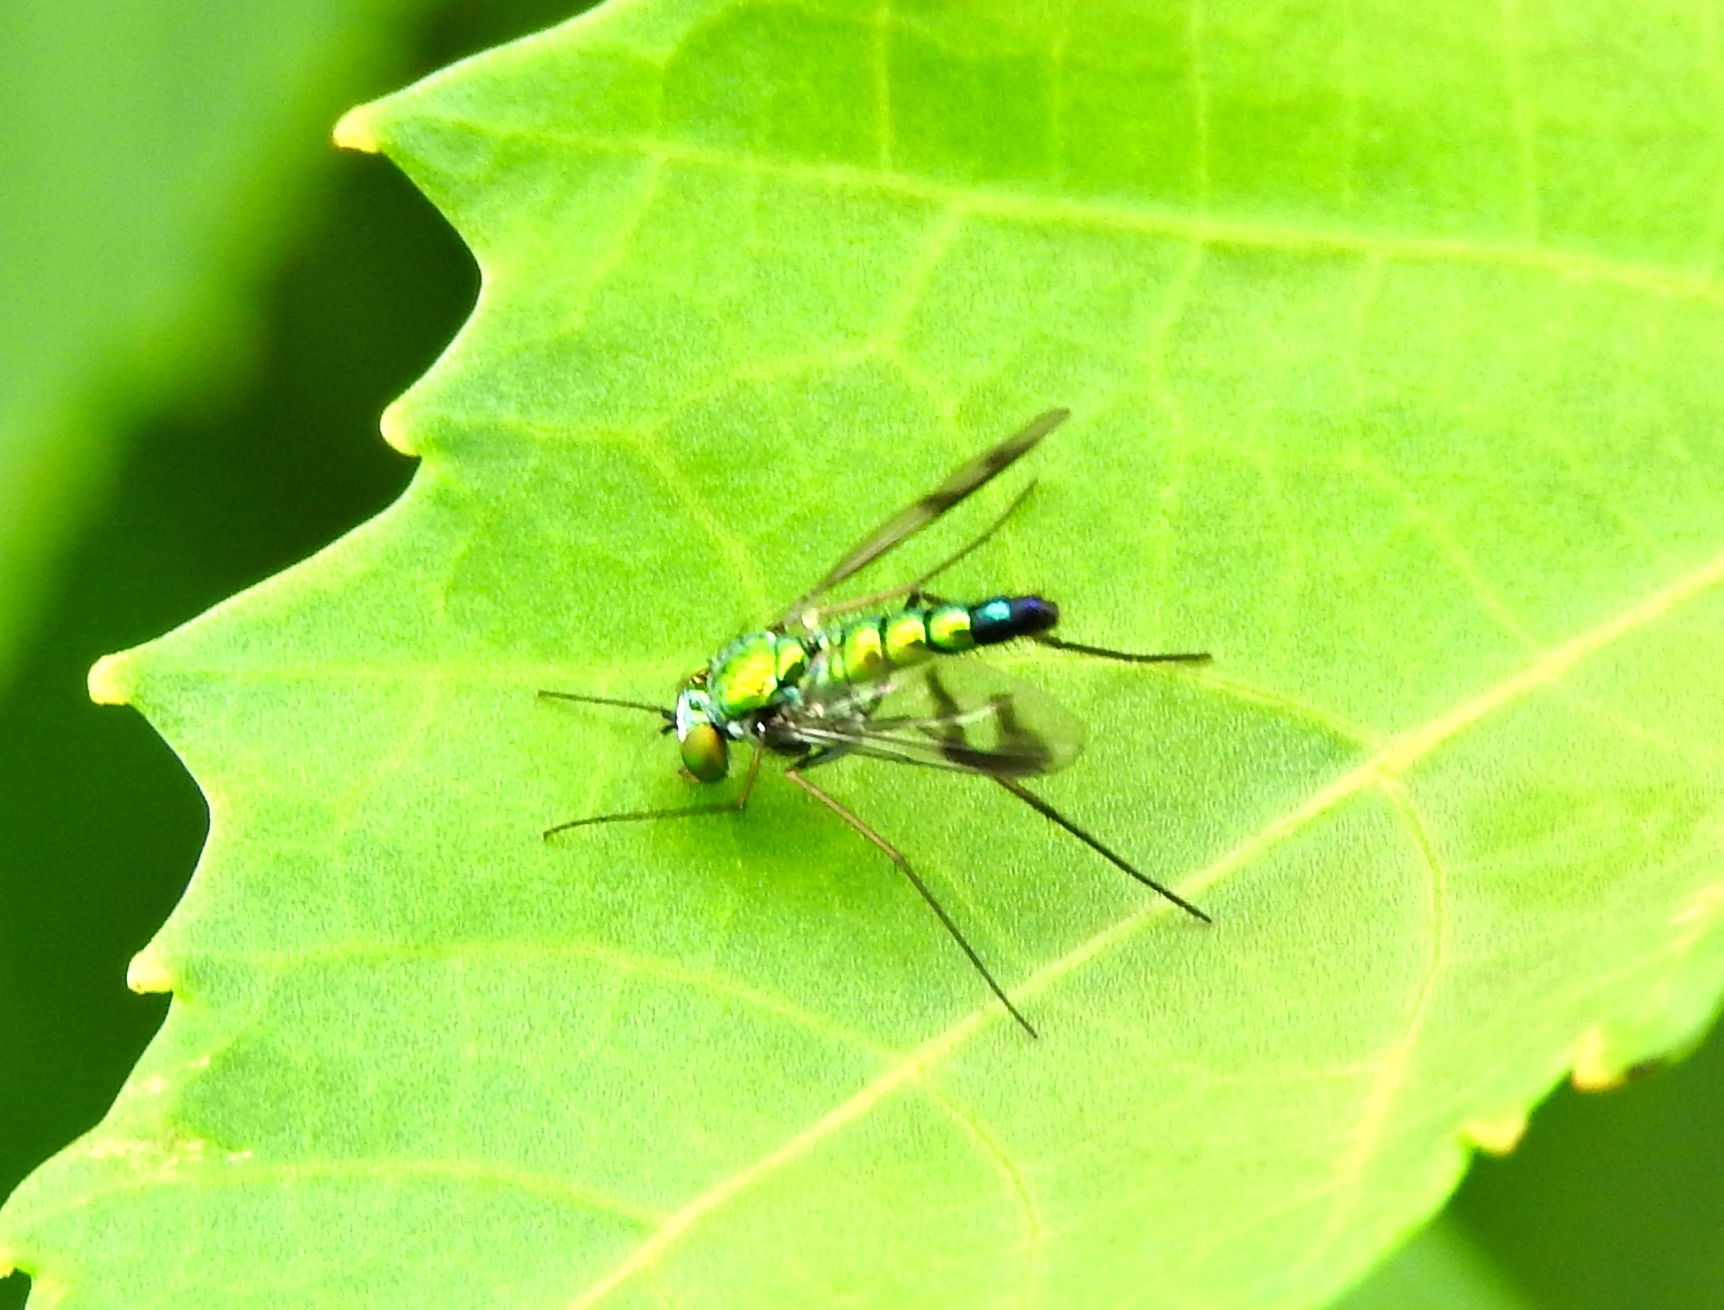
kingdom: Animalia
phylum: Arthropoda
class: Insecta
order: Diptera
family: Dolichopodidae
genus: Condylostylus
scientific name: Condylostylus
